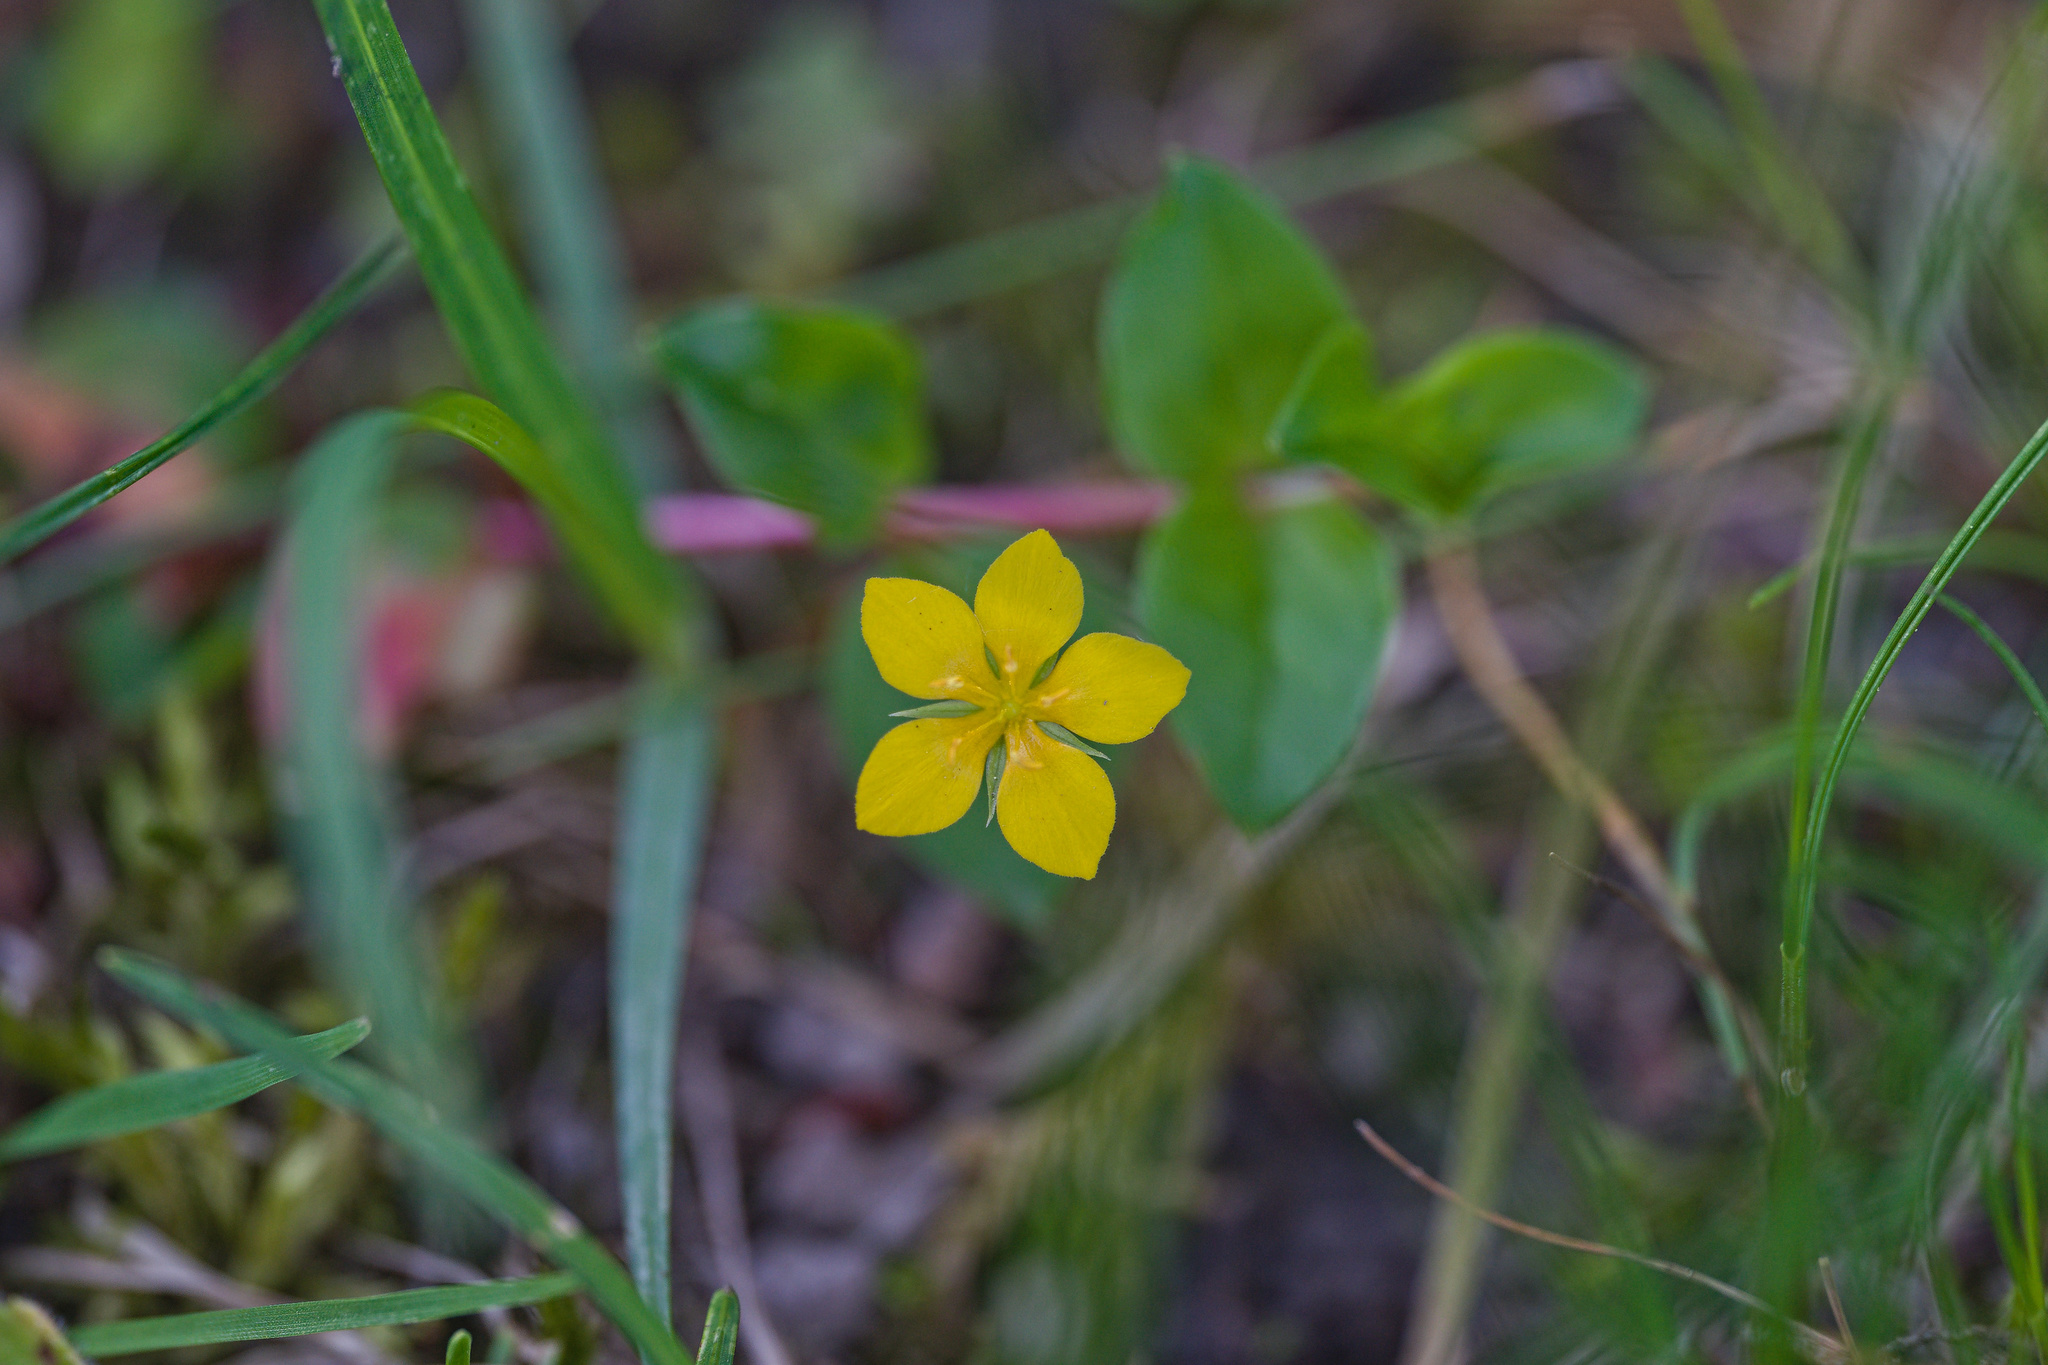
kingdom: Plantae
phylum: Tracheophyta
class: Magnoliopsida
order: Ericales
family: Primulaceae
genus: Lysimachia
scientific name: Lysimachia nemorum
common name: Yellow pimpernel
